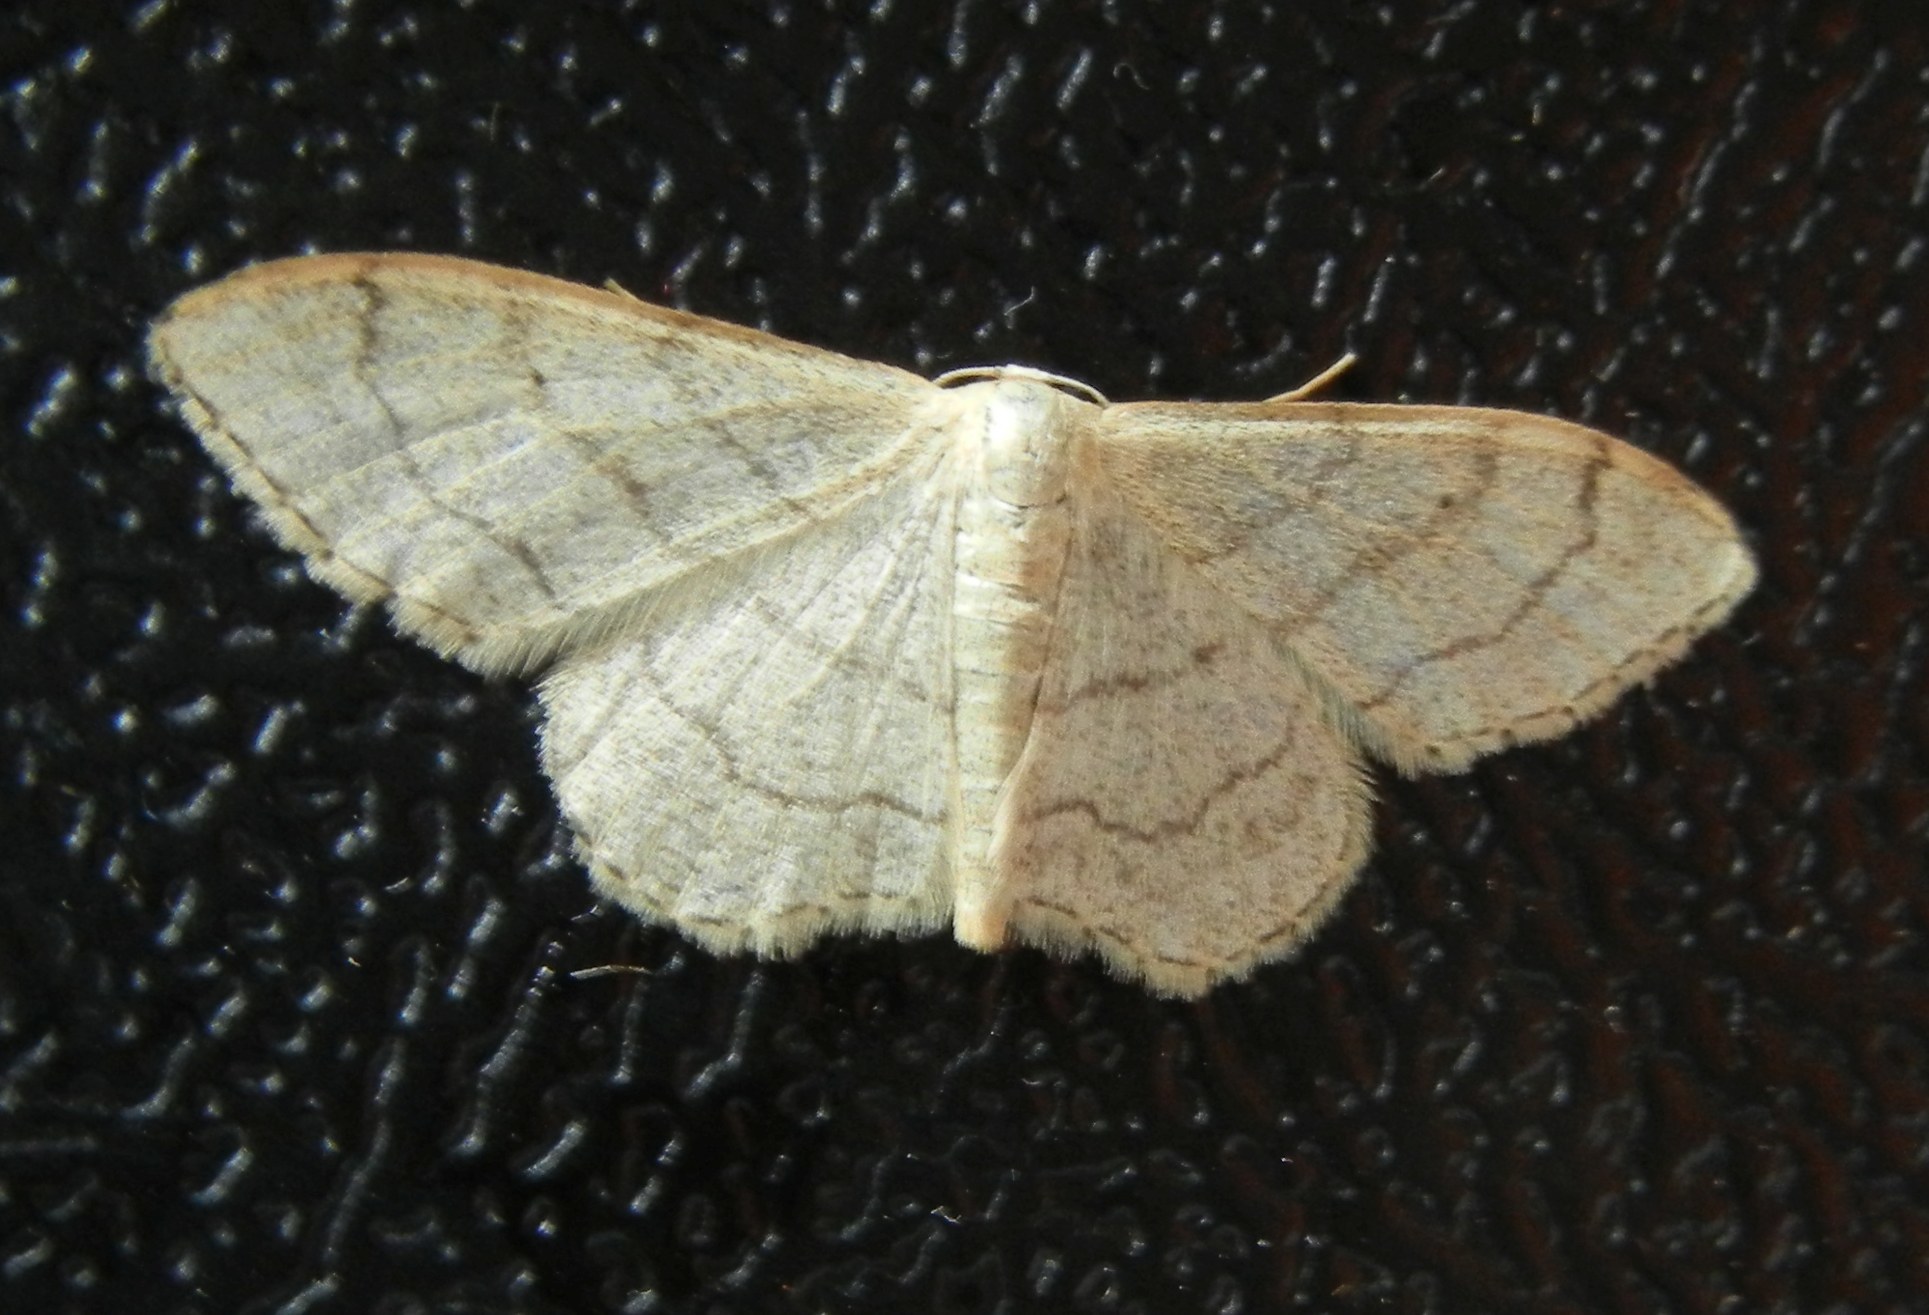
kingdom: Animalia
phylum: Arthropoda
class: Insecta
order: Lepidoptera
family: Geometridae
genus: Idaea
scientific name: Idaea aversata
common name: Riband wave
